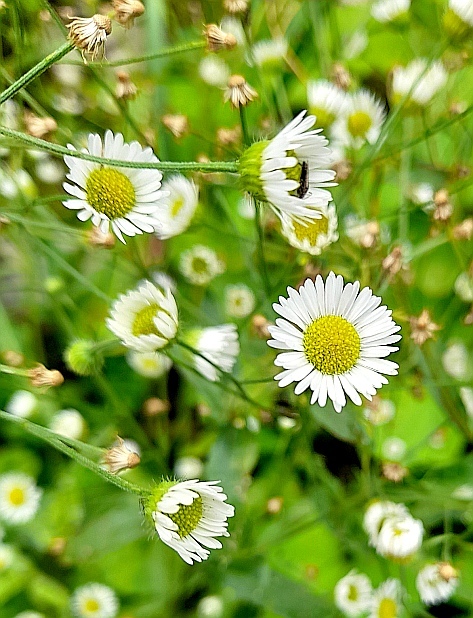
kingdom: Plantae
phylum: Tracheophyta
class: Magnoliopsida
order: Asterales
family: Asteraceae
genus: Erigeron
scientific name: Erigeron annuus
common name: Tall fleabane
